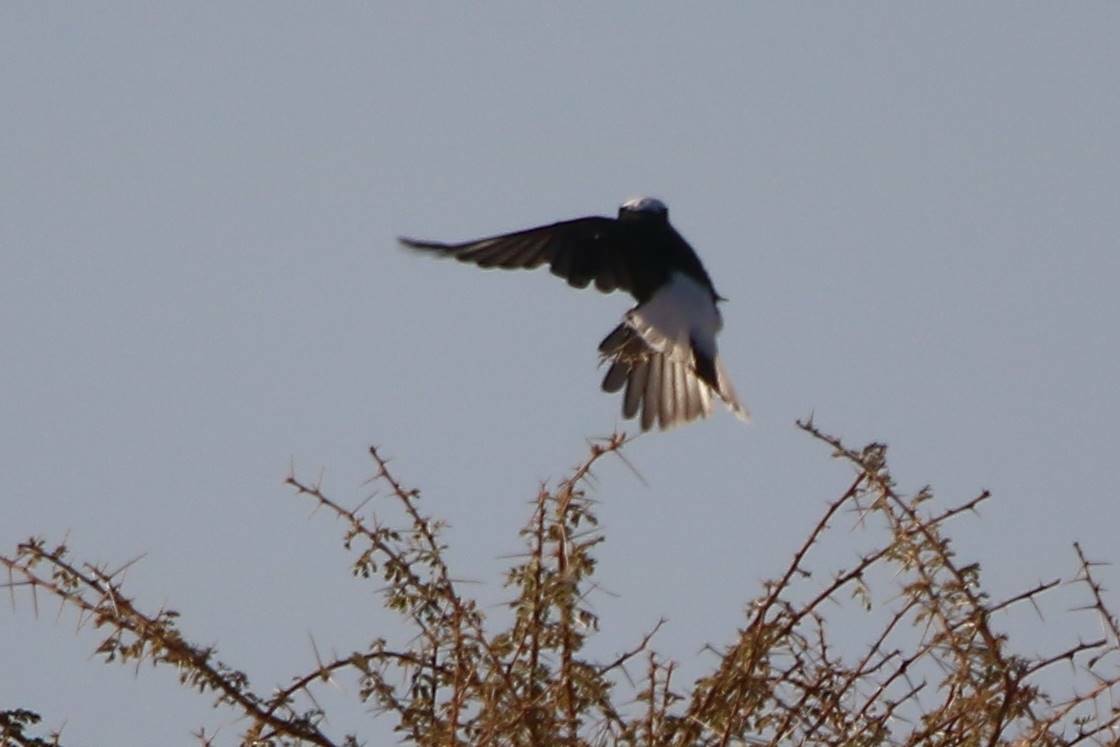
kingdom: Animalia
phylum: Chordata
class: Aves
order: Passeriformes
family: Muscicapidae
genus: Oenanthe
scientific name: Oenanthe leucopyga
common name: White-crowned wheatear
